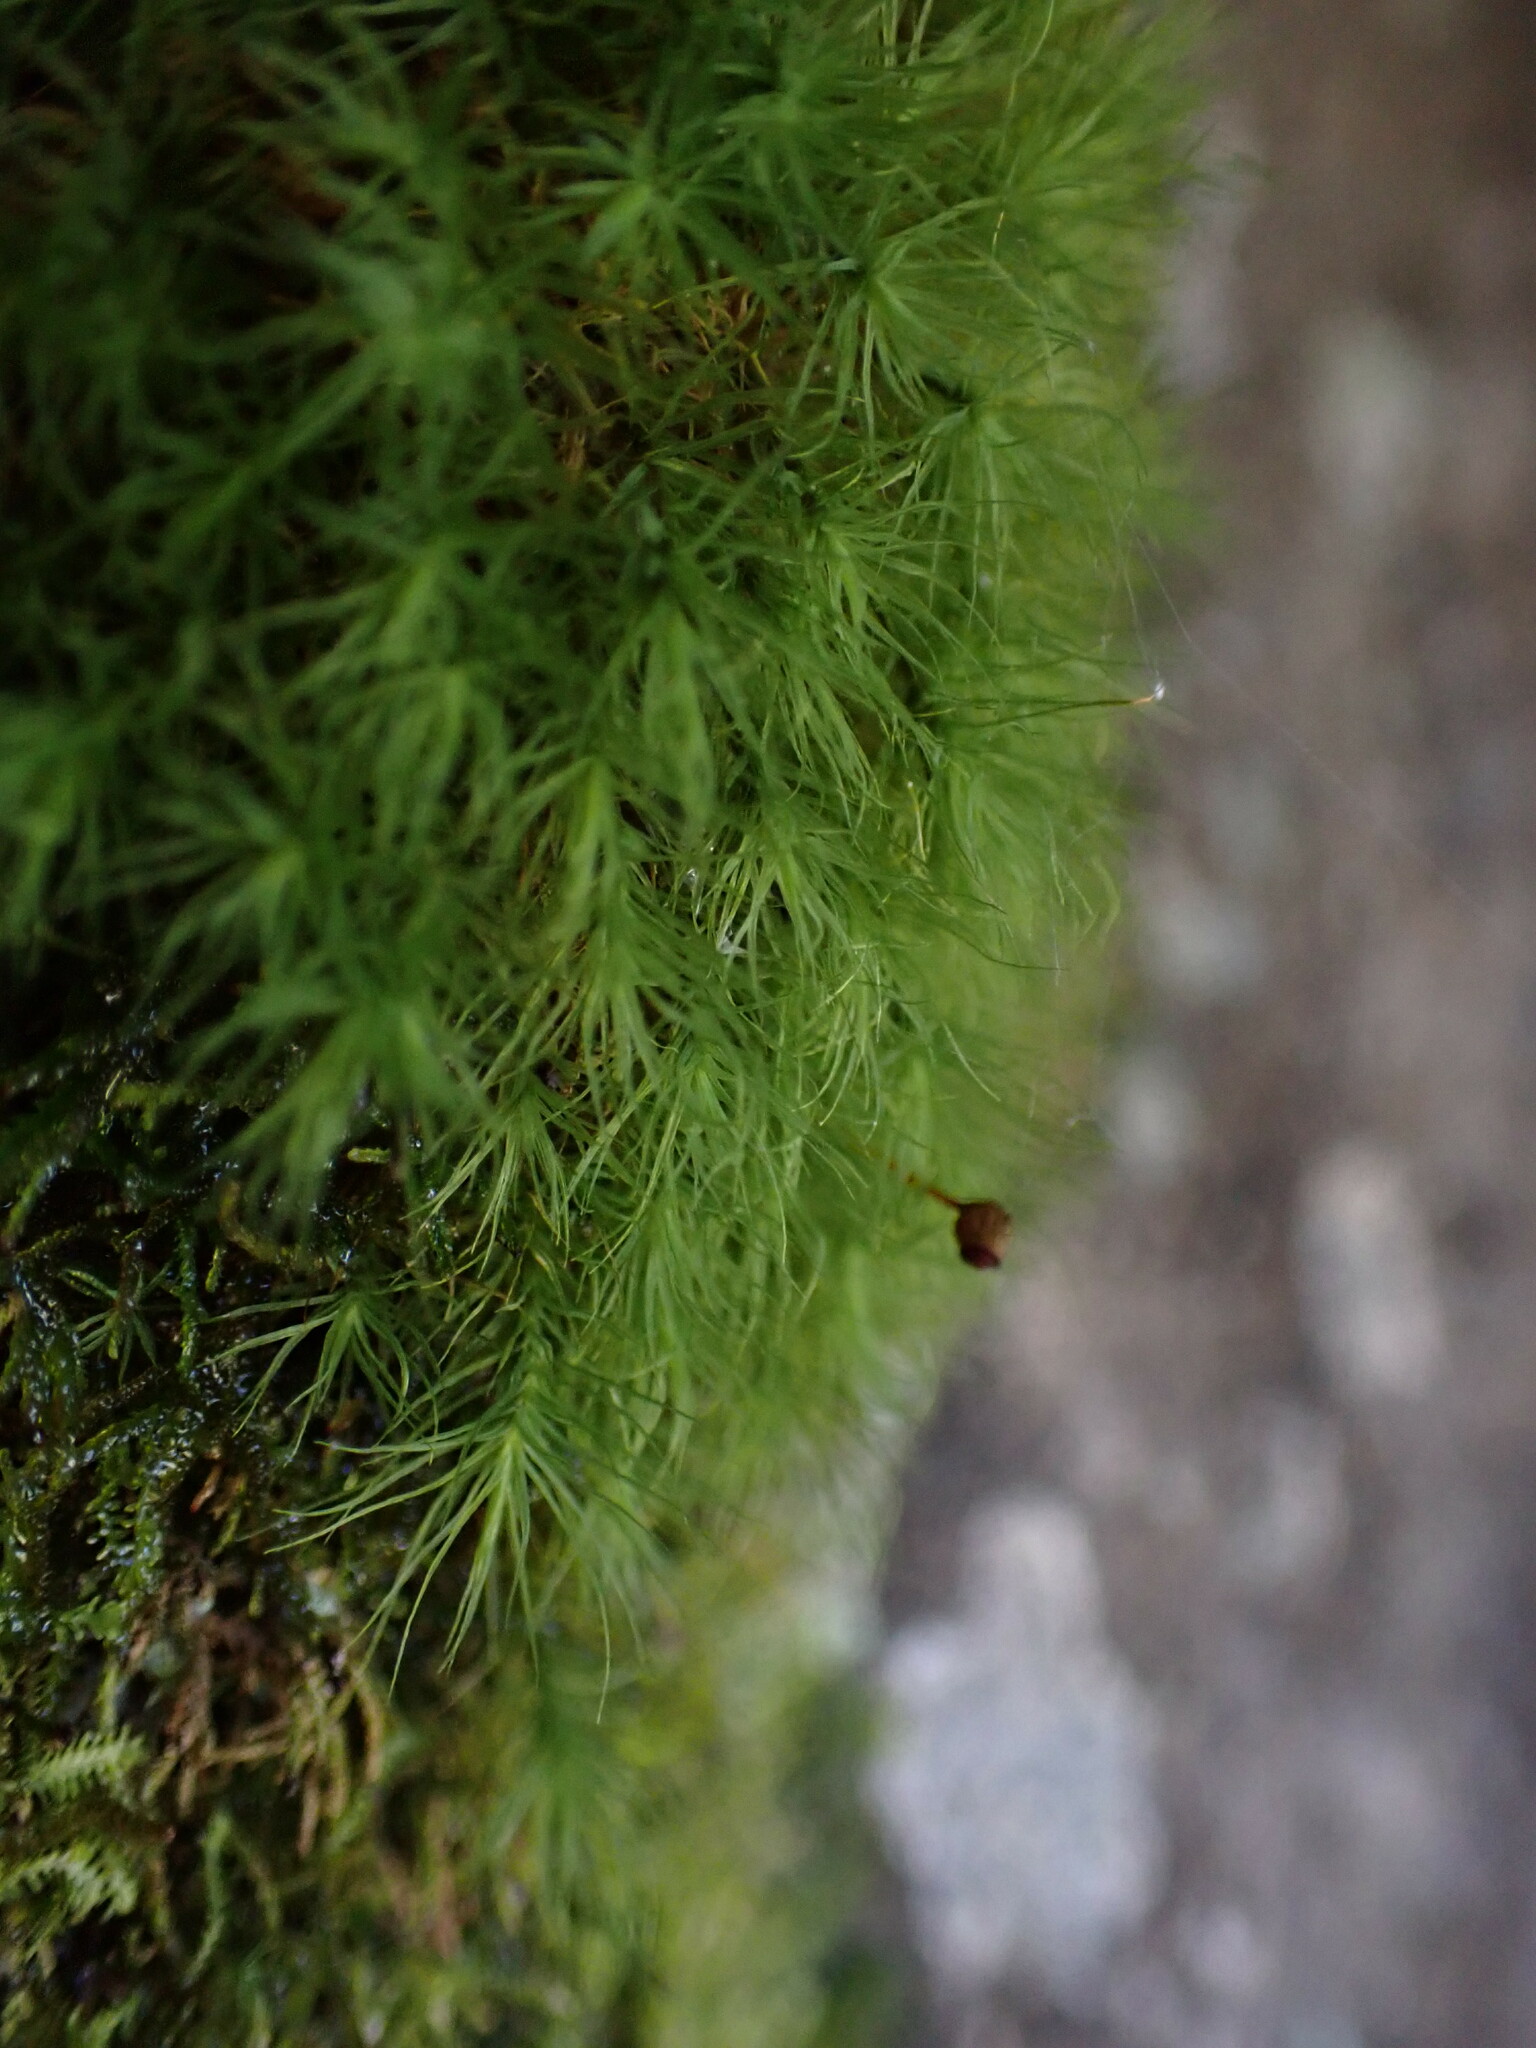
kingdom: Plantae
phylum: Bryophyta
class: Bryopsida
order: Bartramiales
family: Bartramiaceae
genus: Bartramia
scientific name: Bartramia ithyphylla
